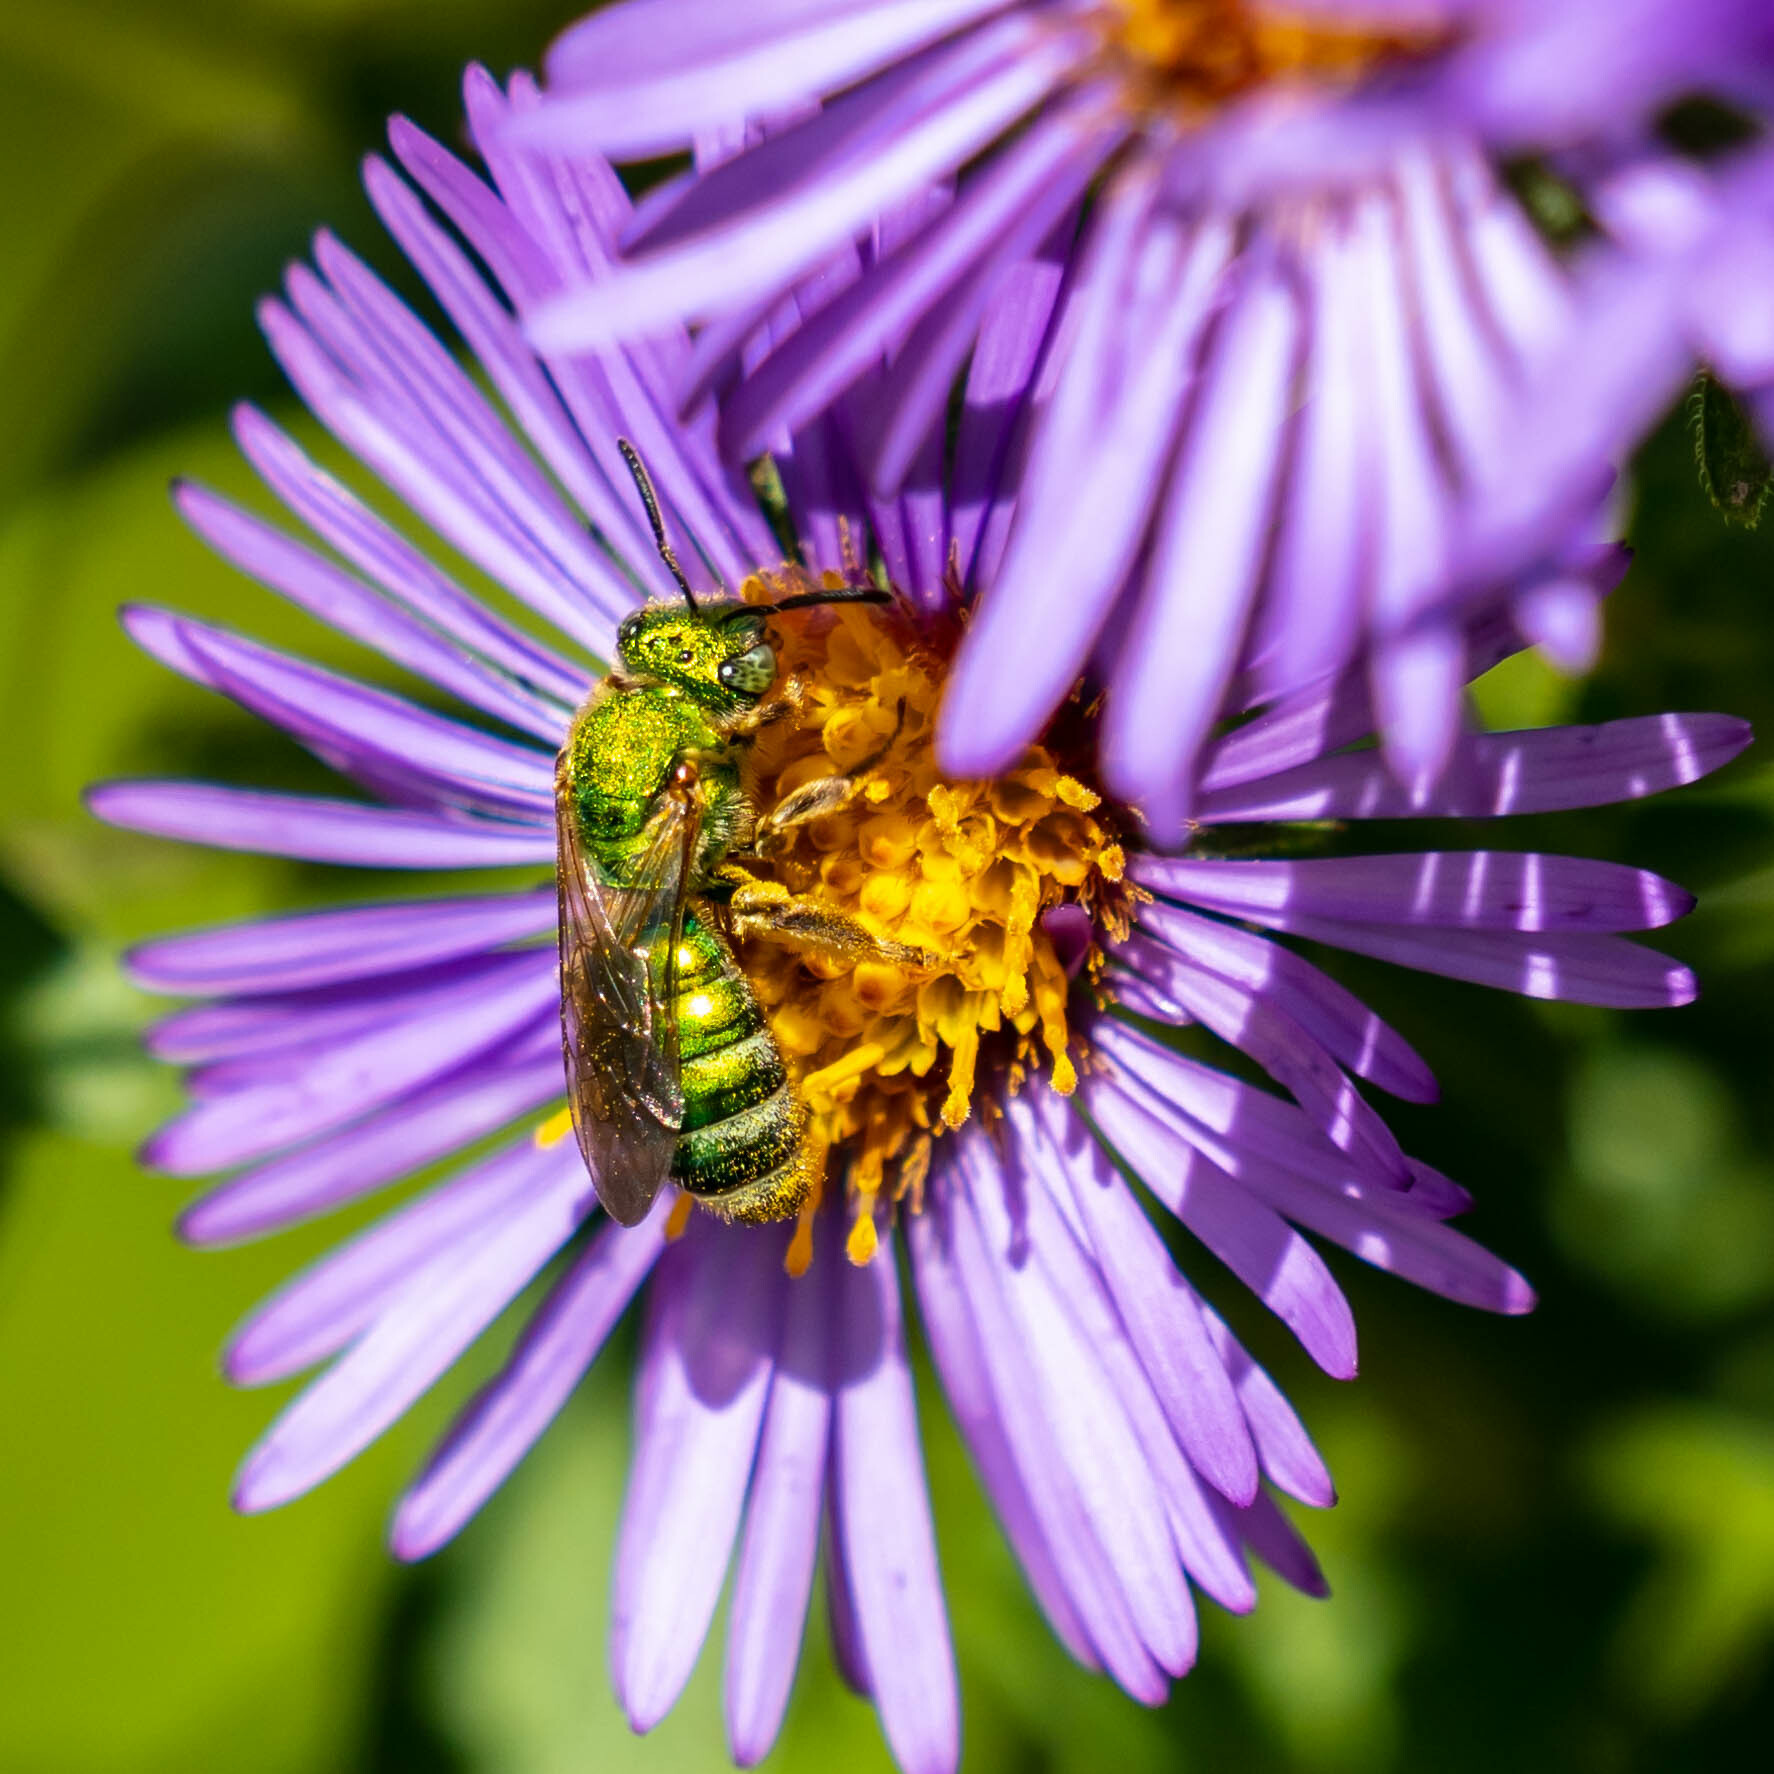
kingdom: Animalia
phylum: Arthropoda
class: Insecta
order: Hymenoptera
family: Halictidae
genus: Agapostemon
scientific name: Agapostemon sericeus
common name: Silky striped sweat bee
